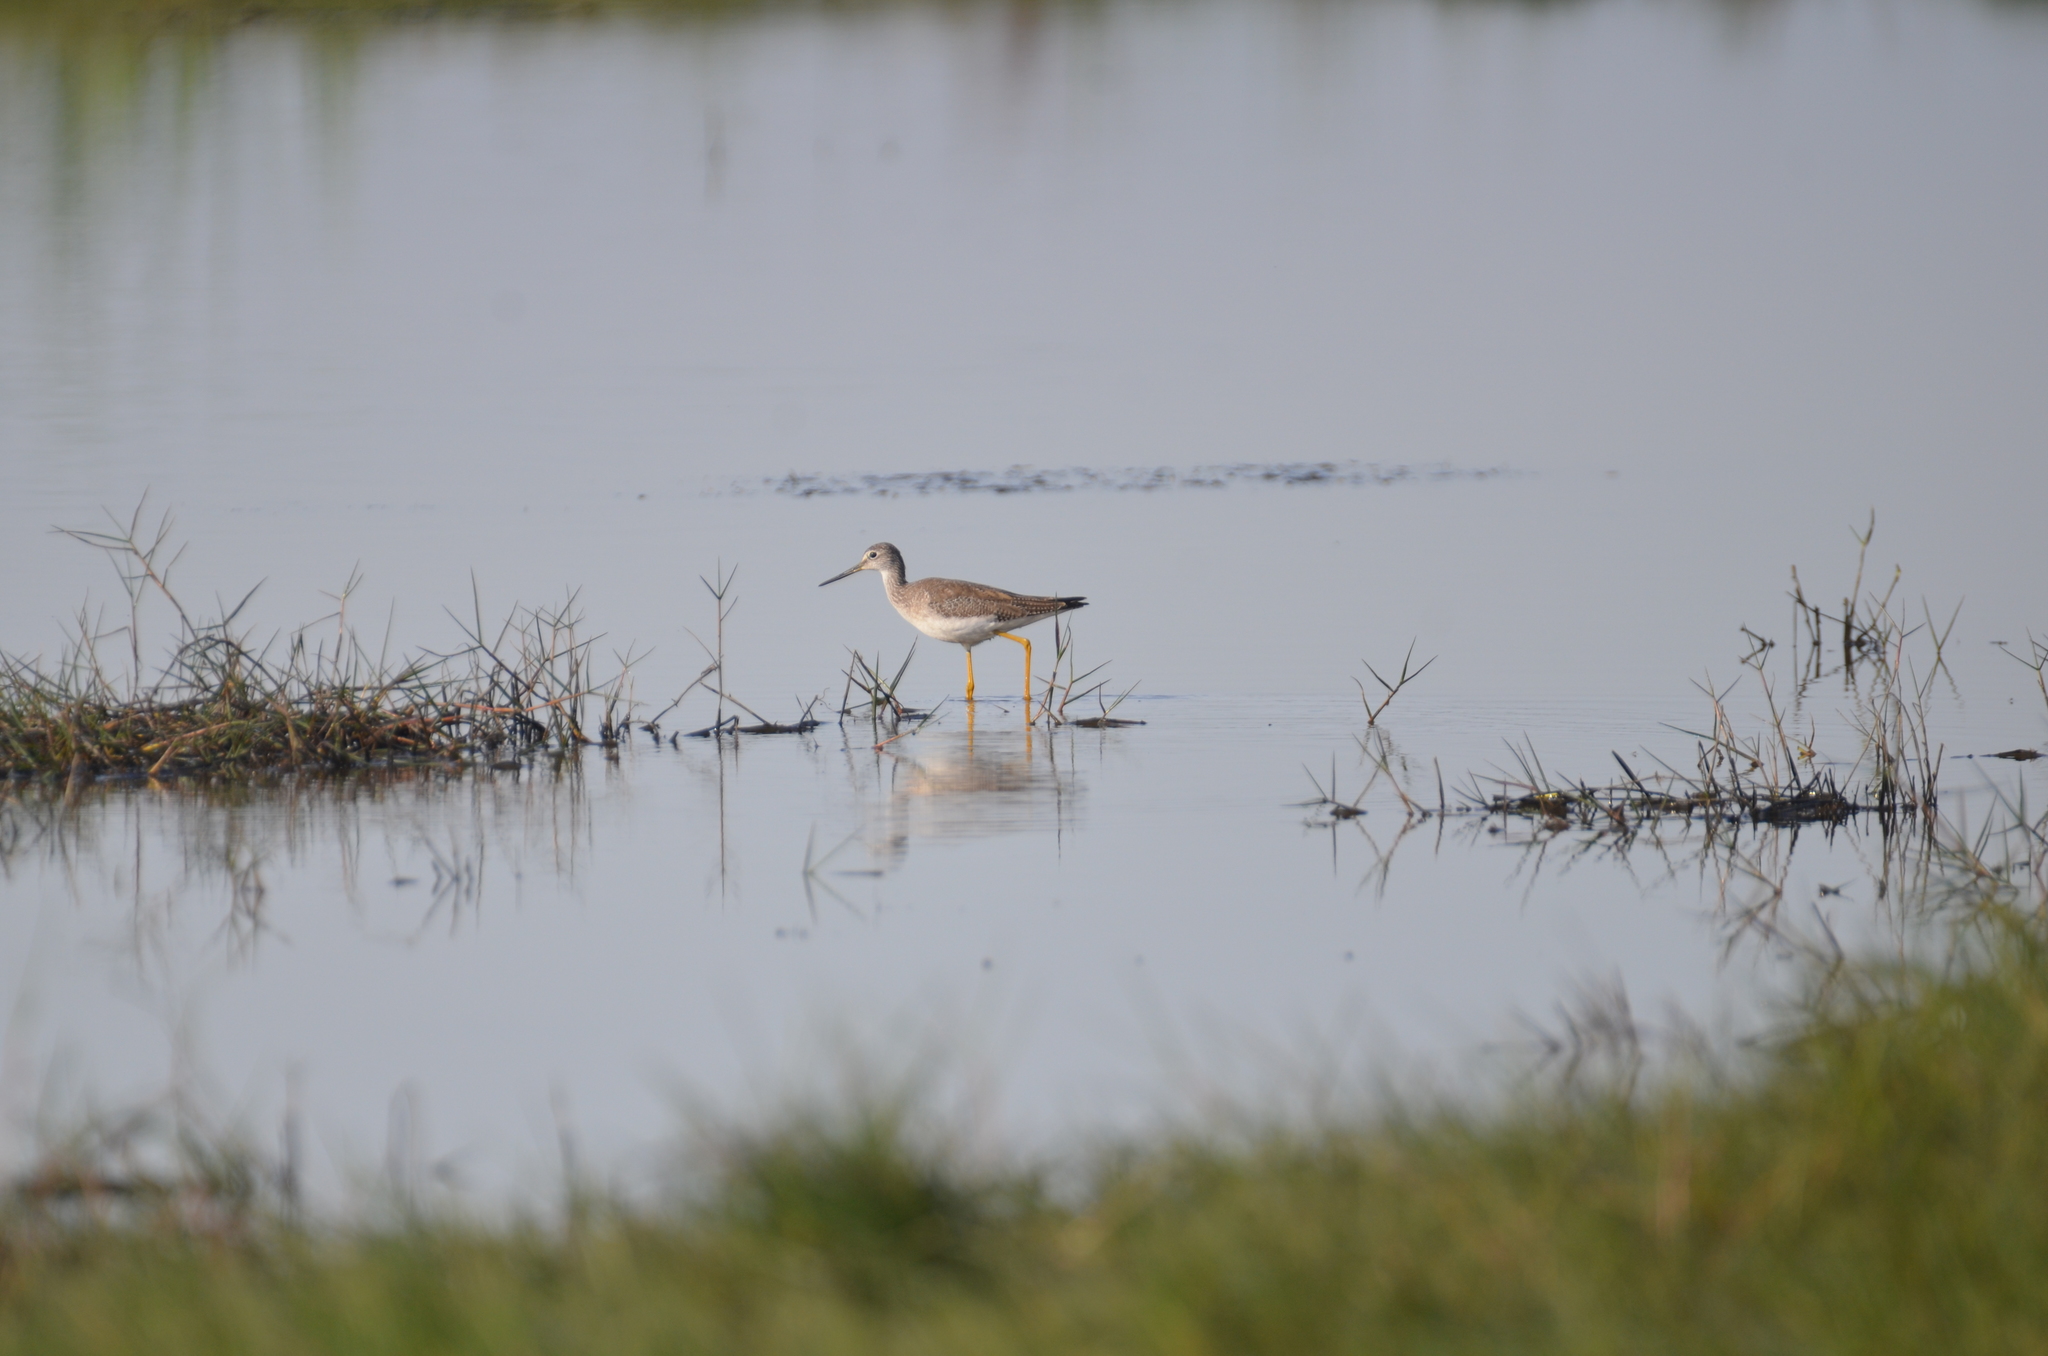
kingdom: Animalia
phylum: Chordata
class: Aves
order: Charadriiformes
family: Scolopacidae
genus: Tringa
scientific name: Tringa melanoleuca
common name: Greater yellowlegs
